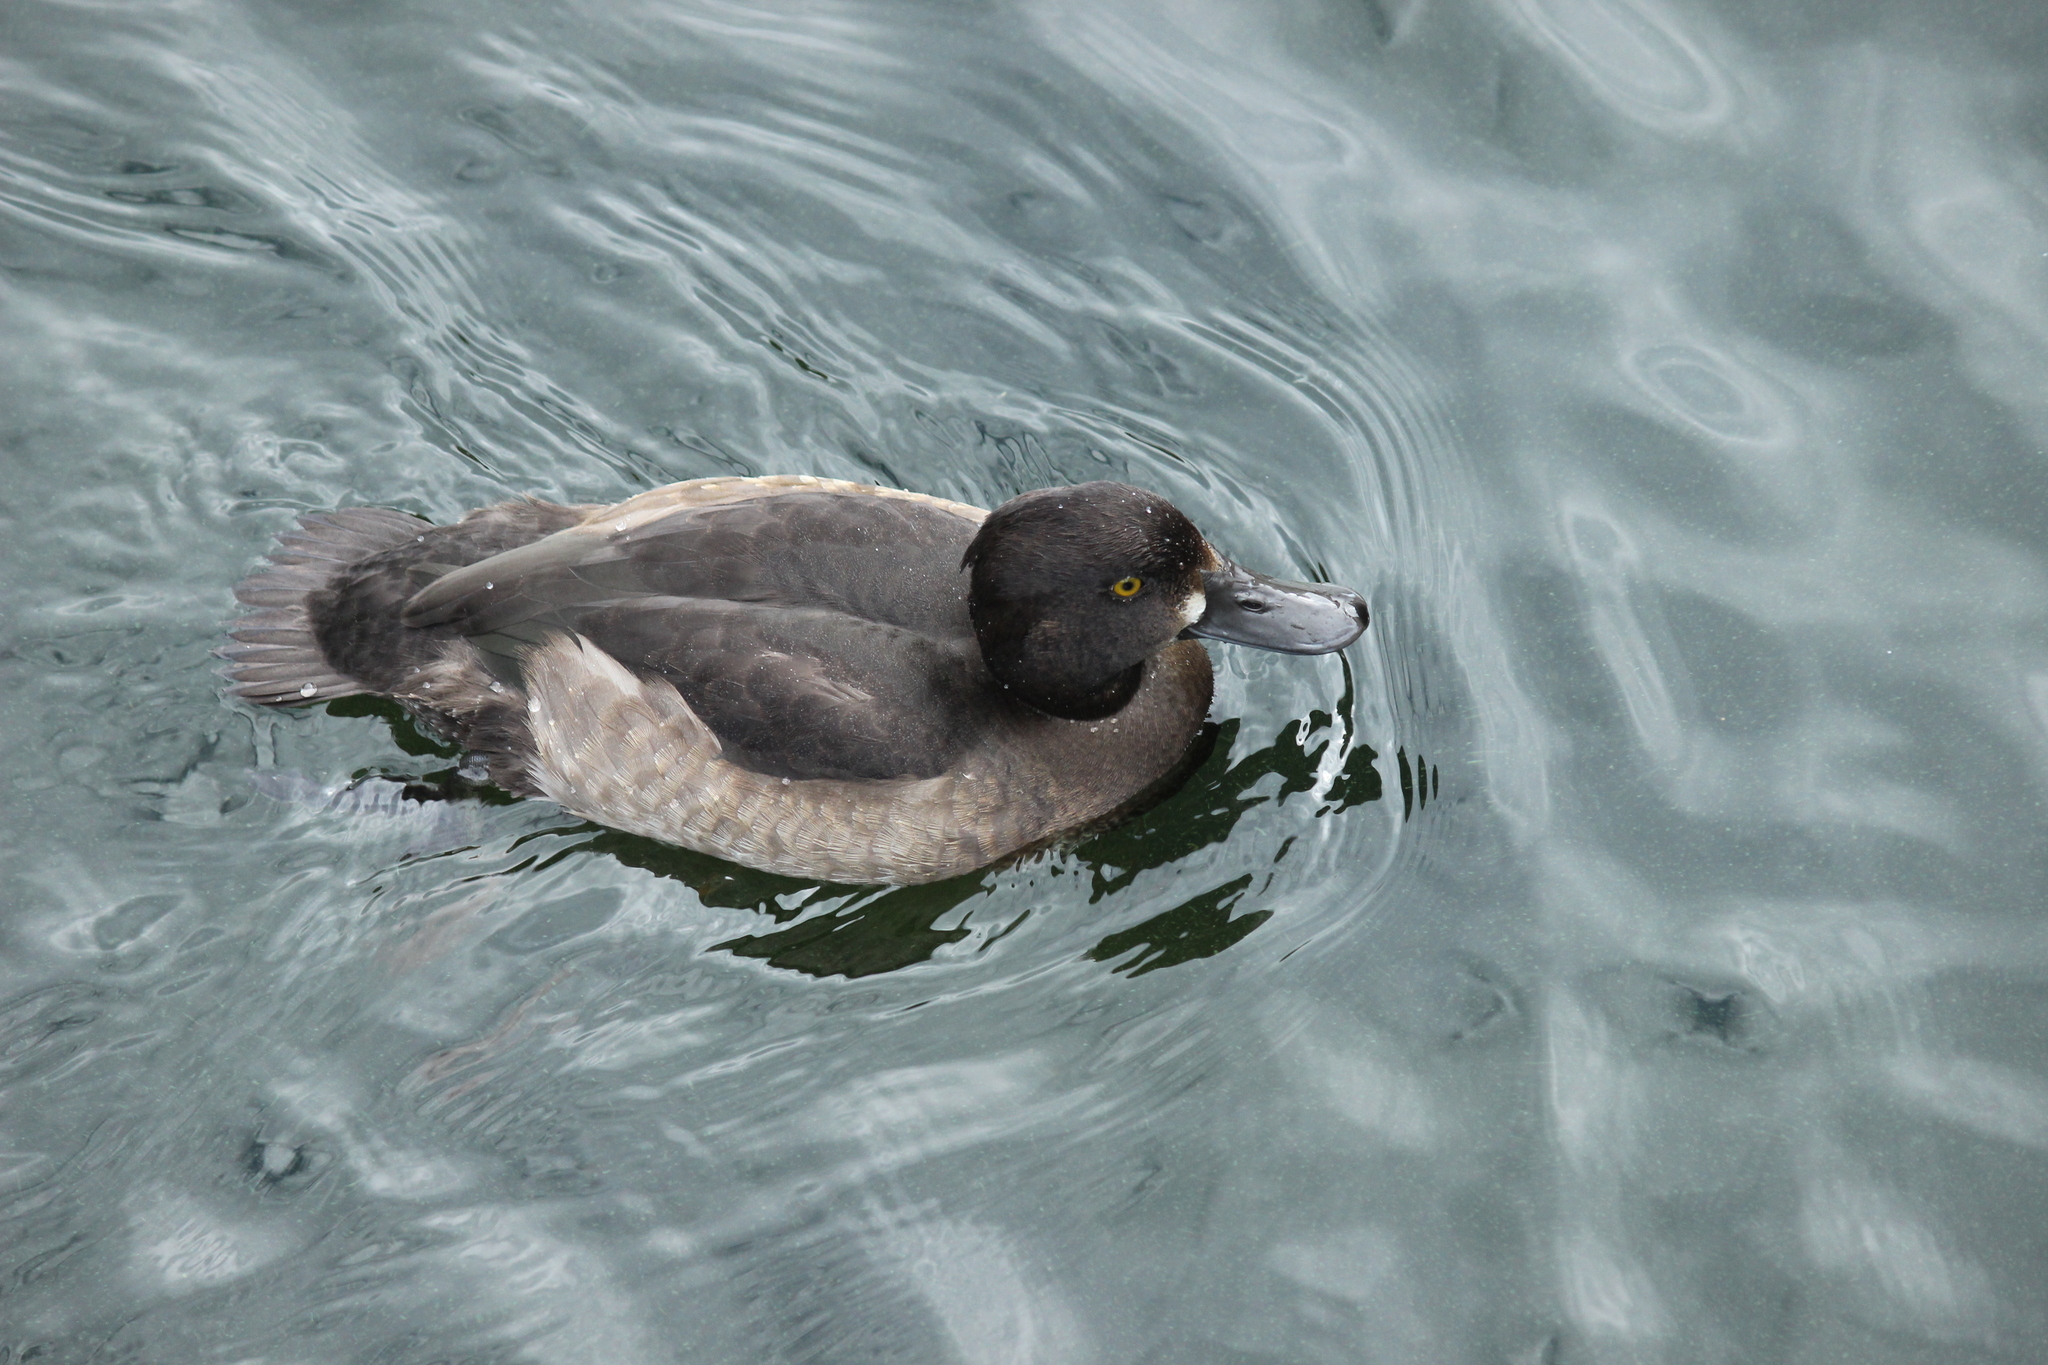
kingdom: Animalia
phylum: Chordata
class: Aves
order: Anseriformes
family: Anatidae
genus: Aythya
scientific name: Aythya fuligula
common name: Tufted duck
